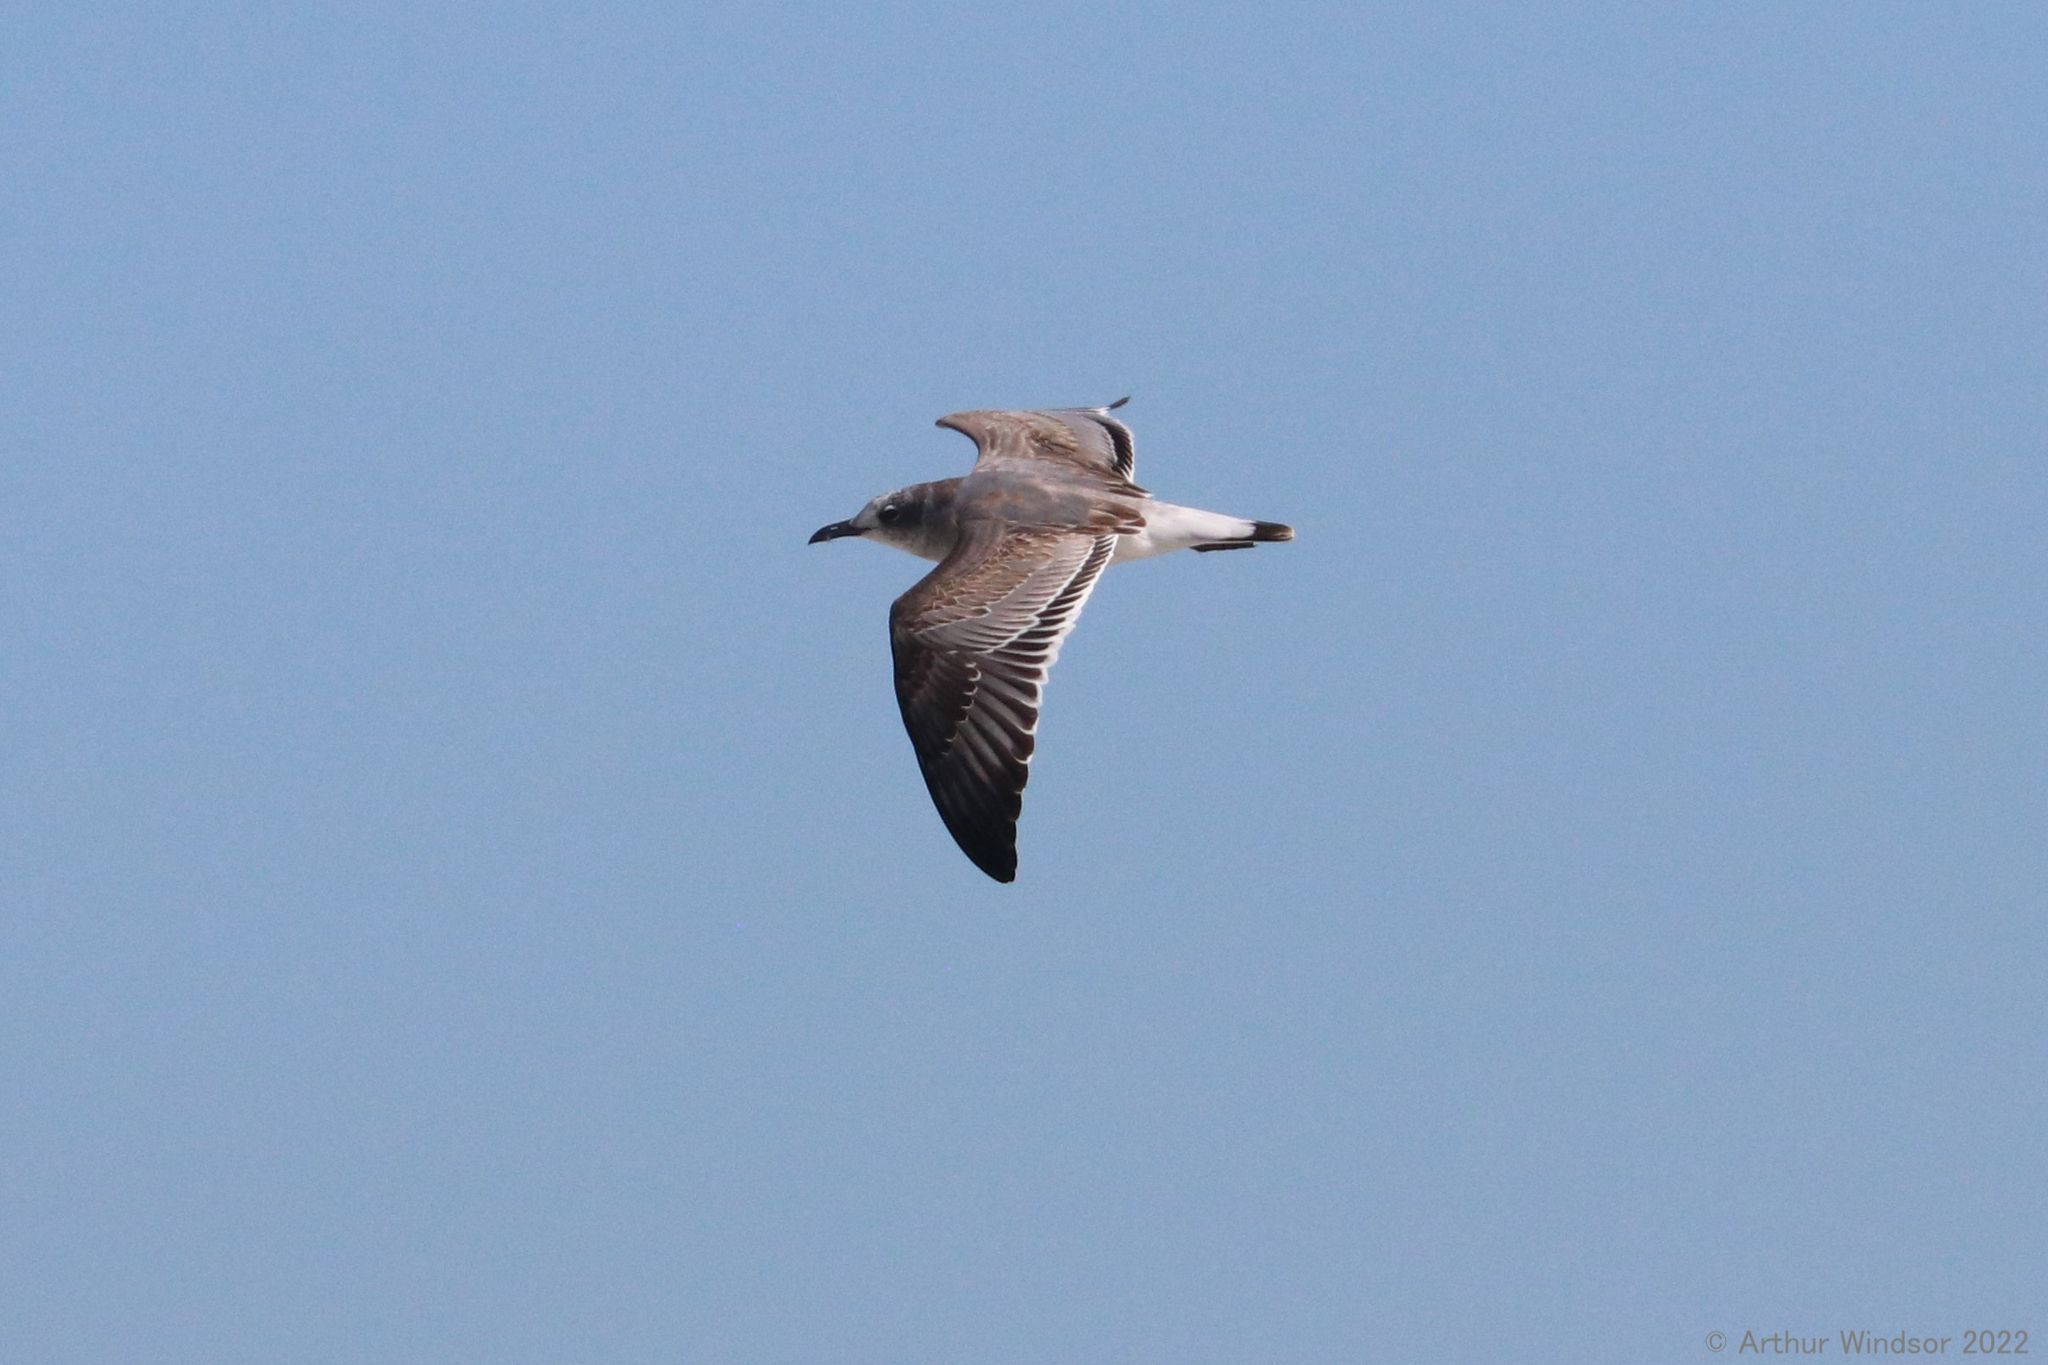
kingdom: Animalia
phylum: Chordata
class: Aves
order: Charadriiformes
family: Laridae
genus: Leucophaeus
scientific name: Leucophaeus atricilla
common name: Laughing gull
